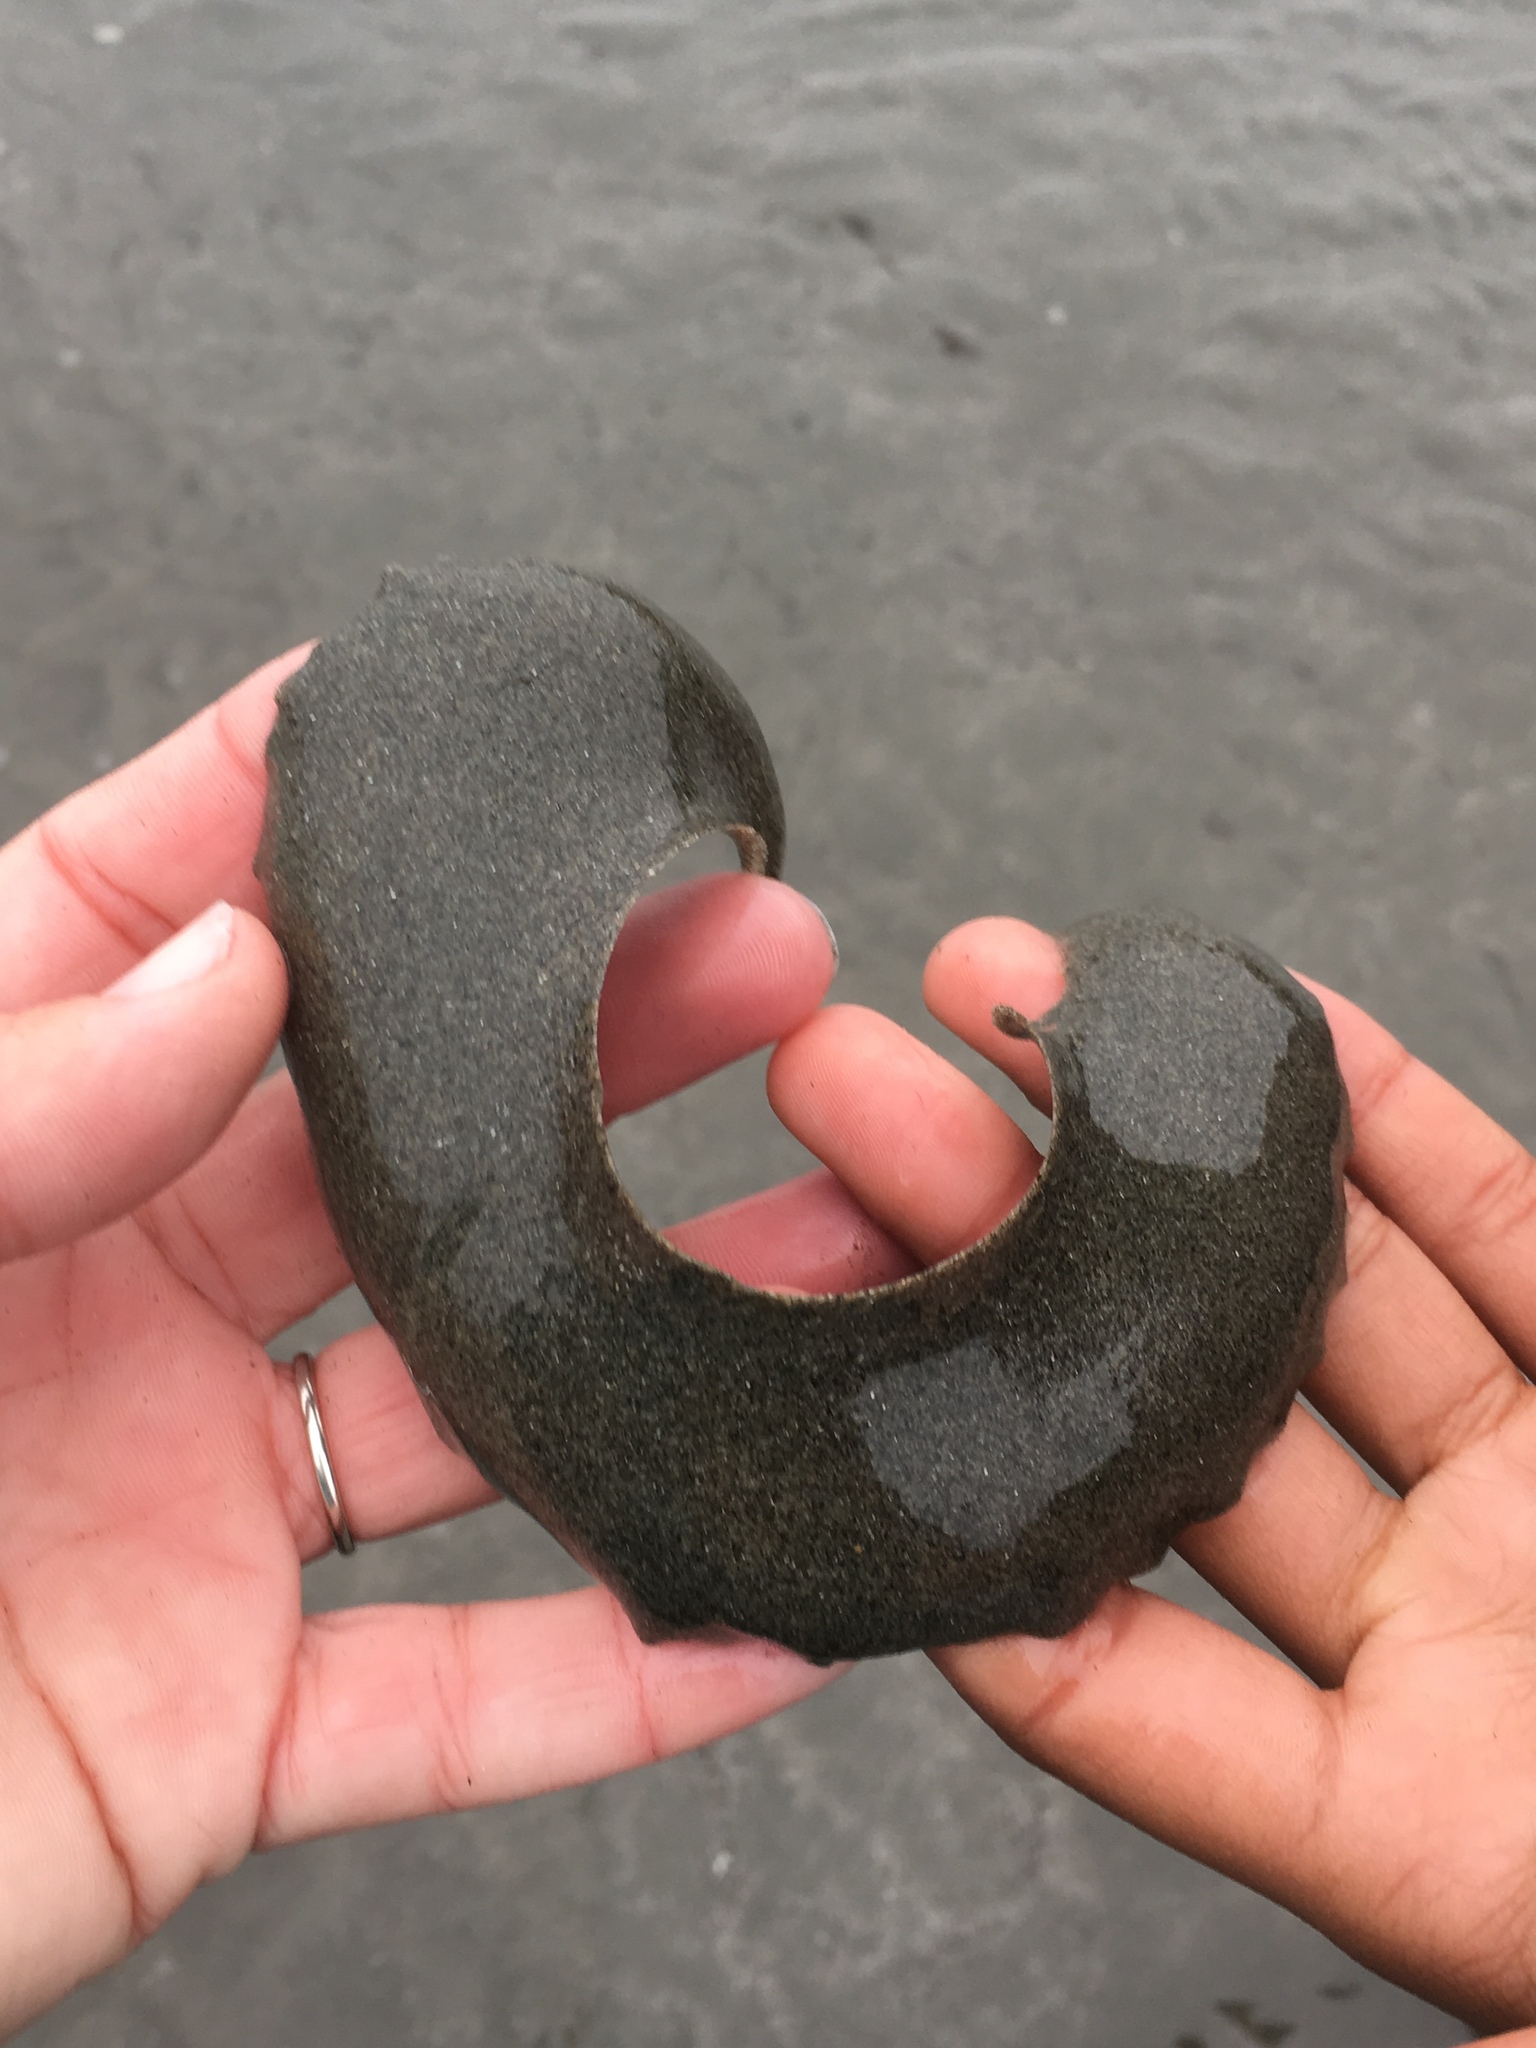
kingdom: Animalia
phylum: Mollusca
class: Gastropoda
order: Littorinimorpha
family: Naticidae
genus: Neverita
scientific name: Neverita lewisii
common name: Lewis' moonsnail
